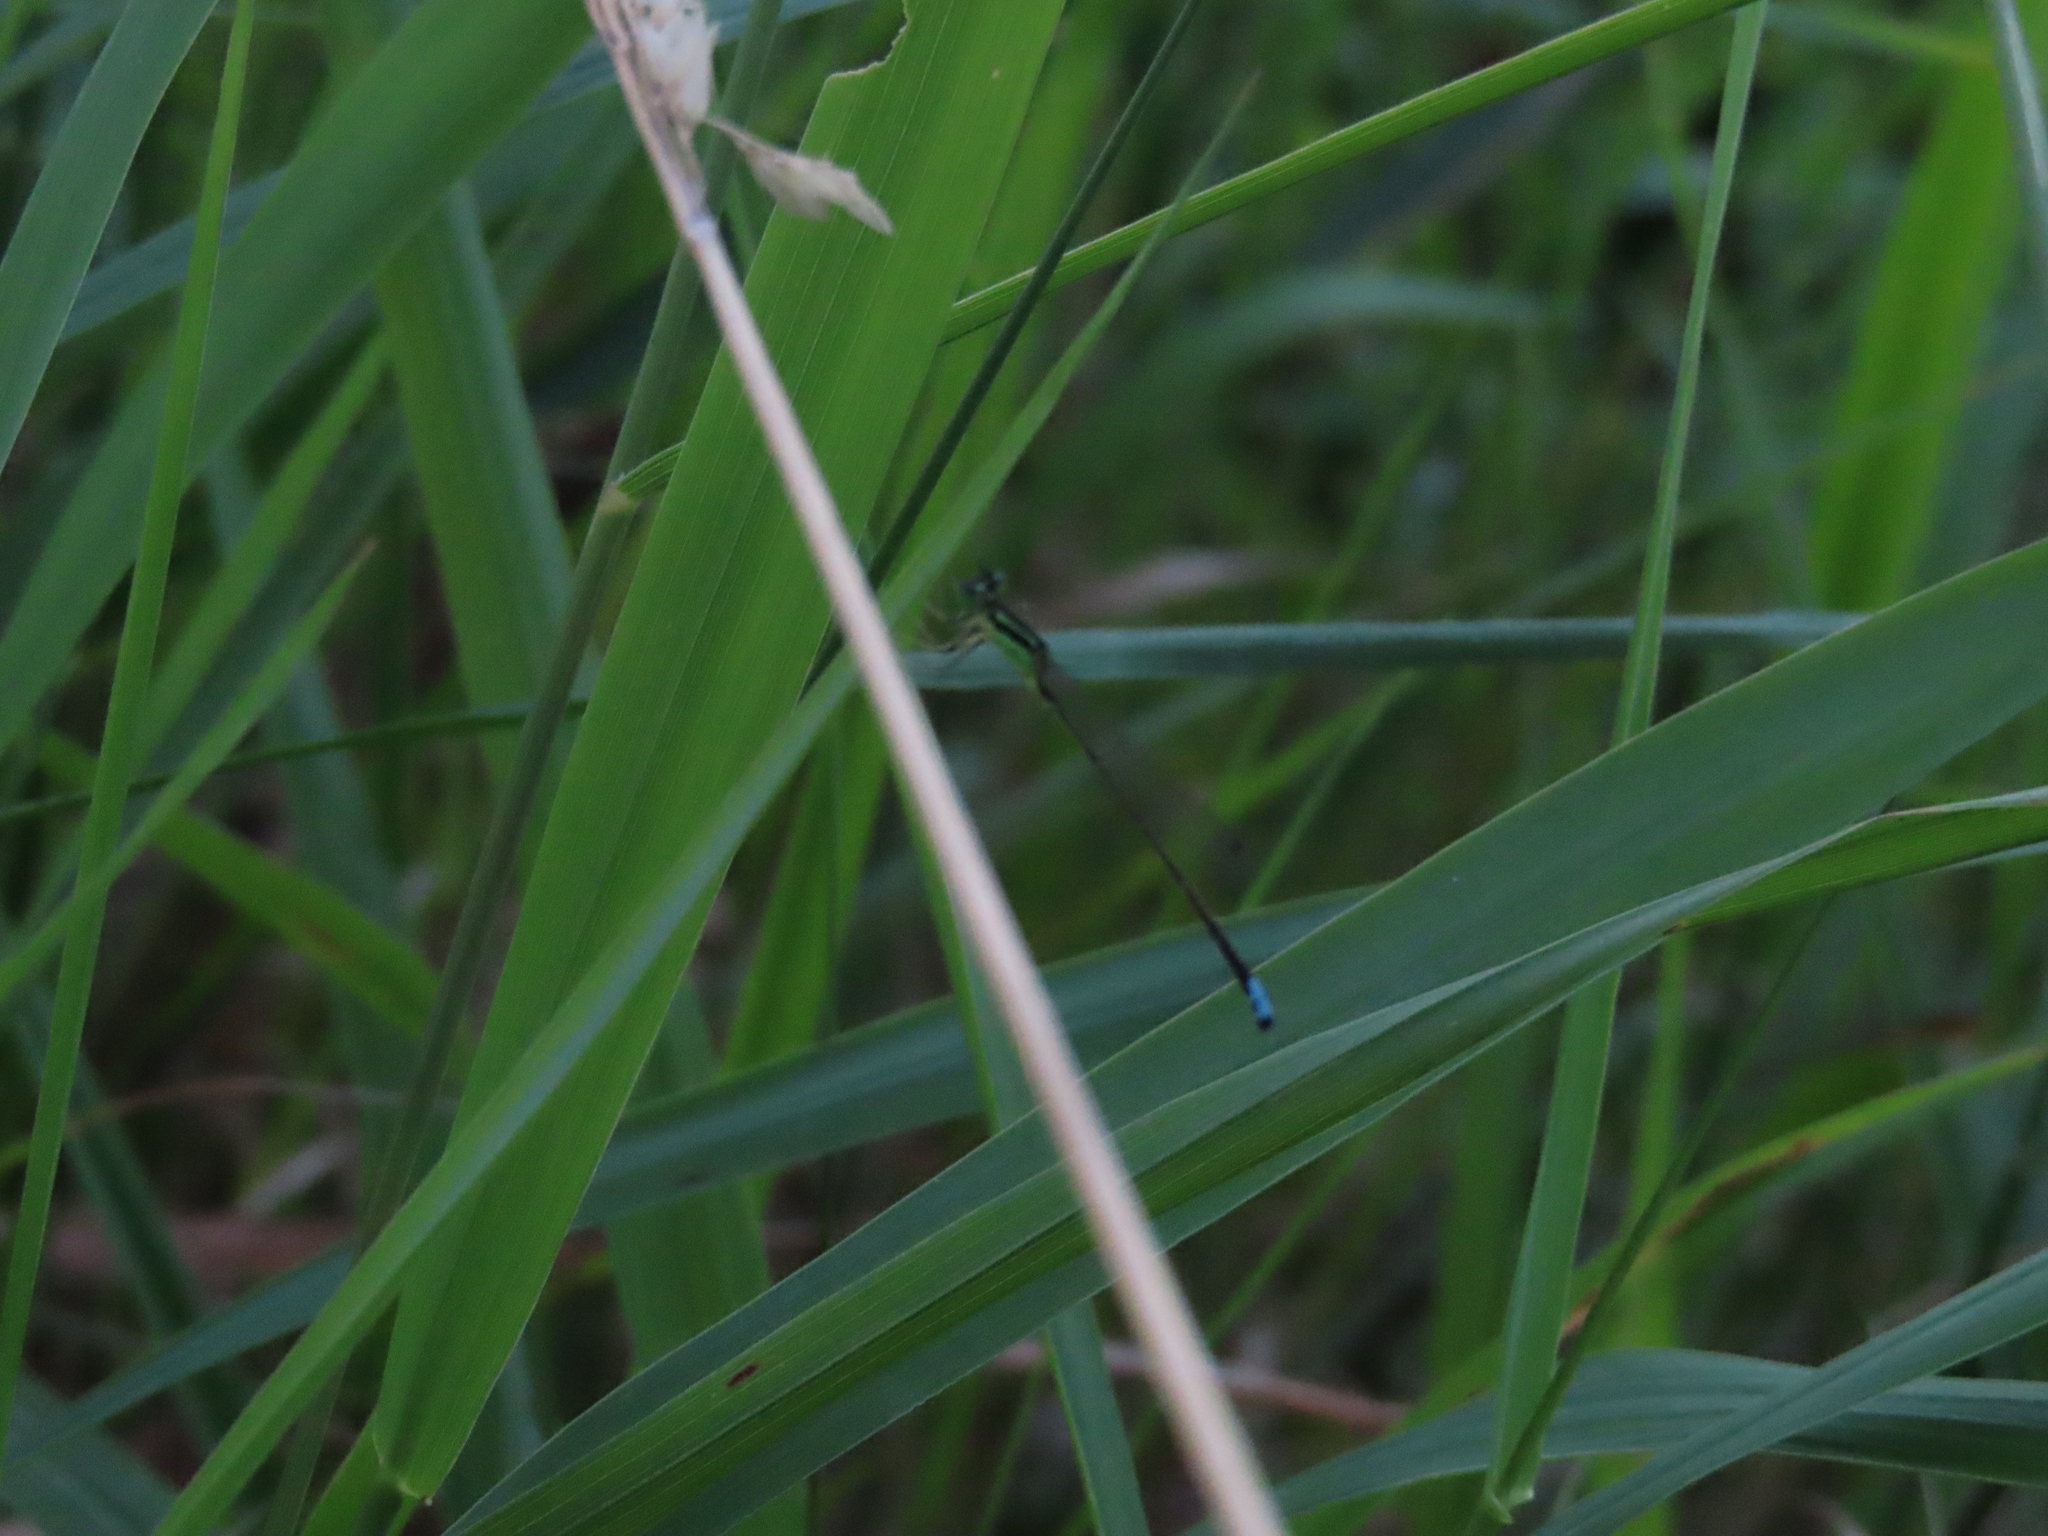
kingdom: Animalia
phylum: Arthropoda
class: Insecta
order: Odonata
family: Coenagrionidae
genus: Ischnura
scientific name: Ischnura verticalis
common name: Eastern forktail
